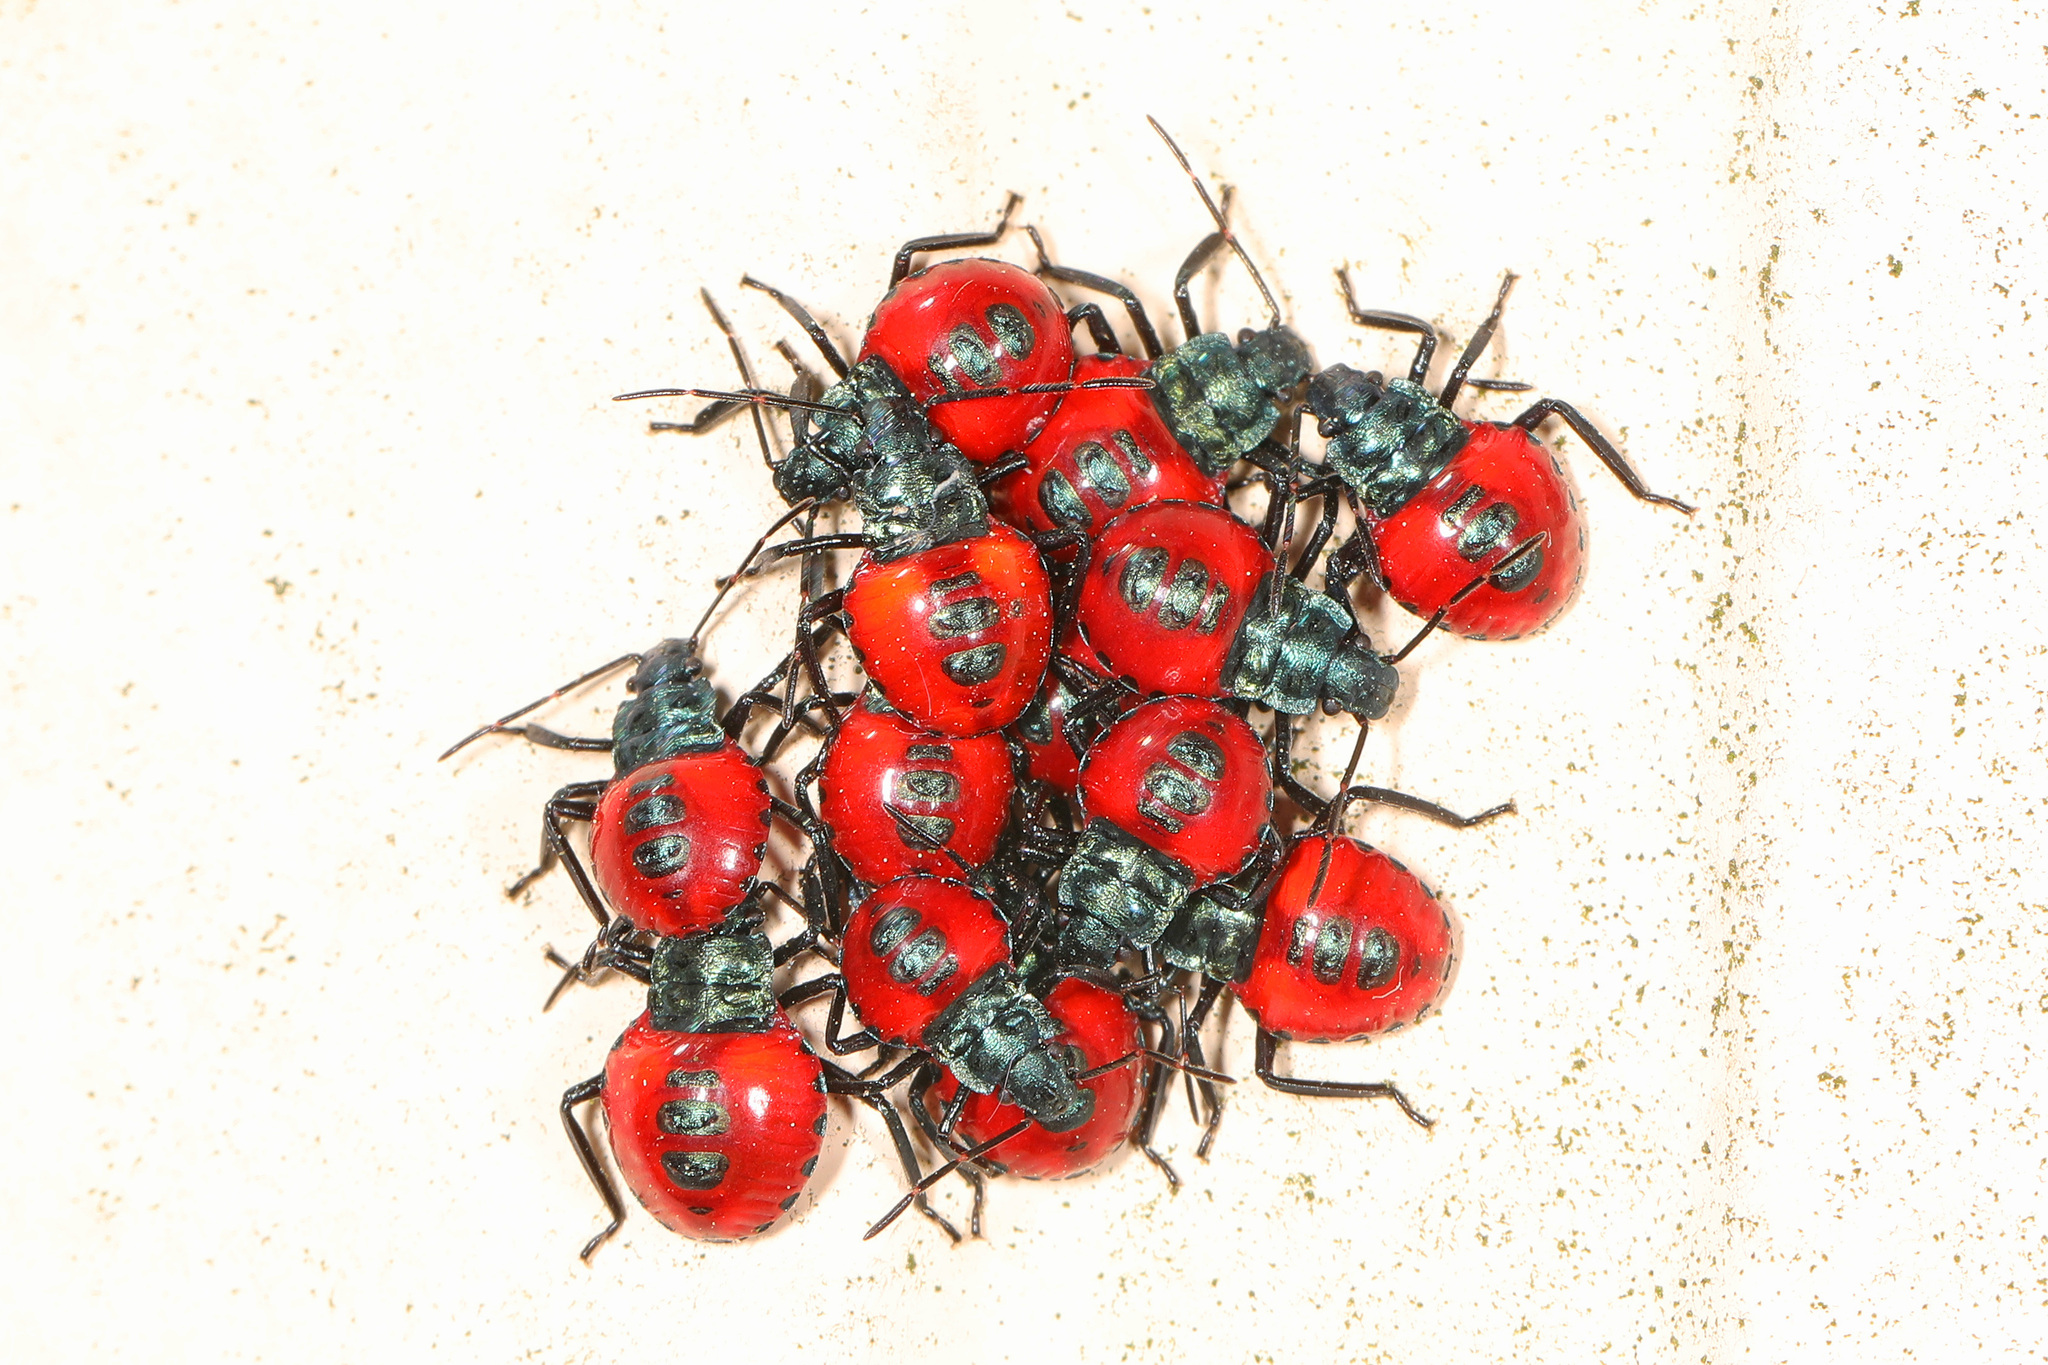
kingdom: Animalia
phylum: Arthropoda
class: Insecta
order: Hemiptera
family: Pentatomidae
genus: Euthyrhynchus
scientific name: Euthyrhynchus floridanus
